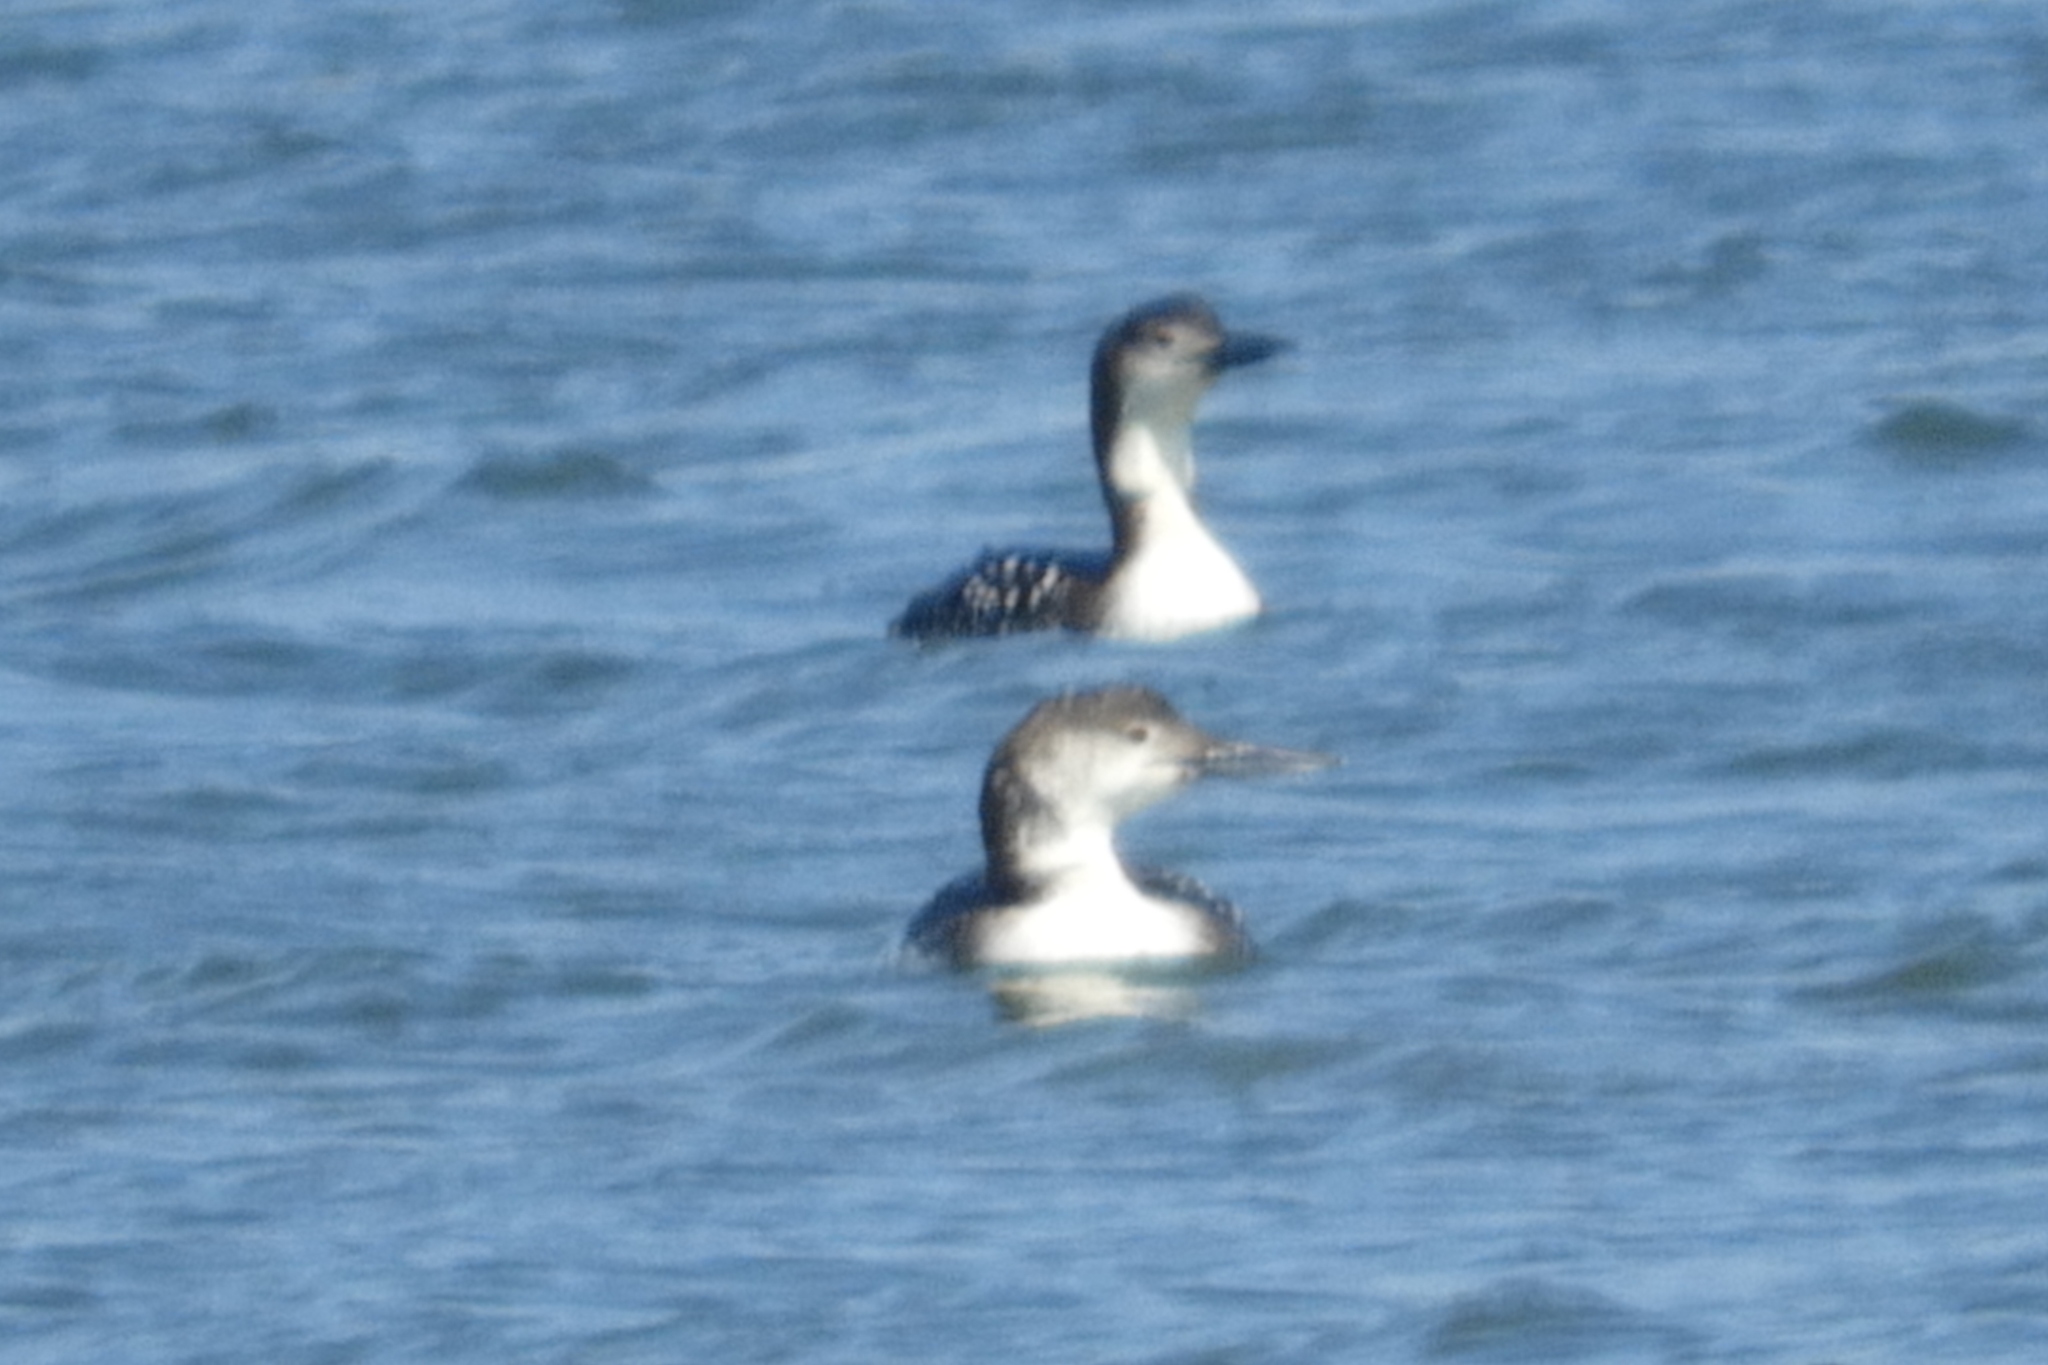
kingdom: Animalia
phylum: Chordata
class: Aves
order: Gaviiformes
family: Gaviidae
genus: Gavia
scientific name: Gavia immer
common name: Common loon
